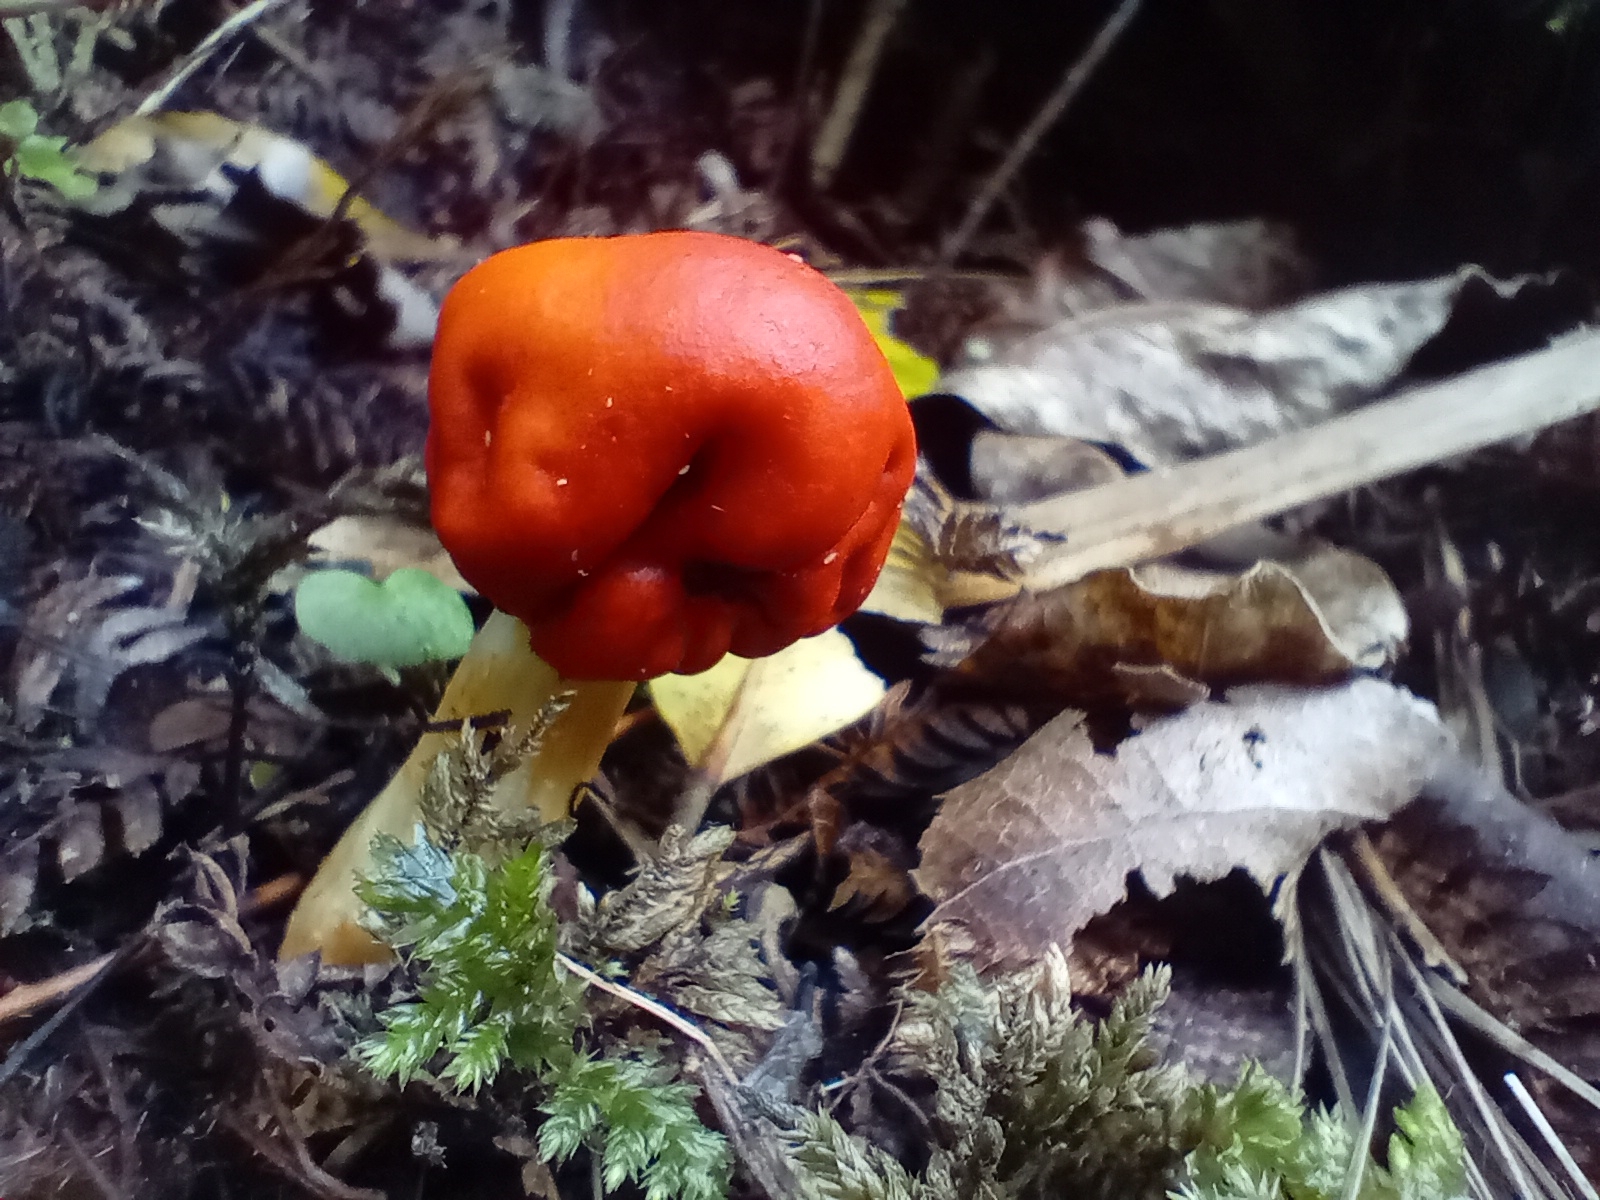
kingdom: Fungi
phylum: Basidiomycota
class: Agaricomycetes
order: Agaricales
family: Strophariaceae
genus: Leratiomyces
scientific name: Leratiomyces erythrocephalus
